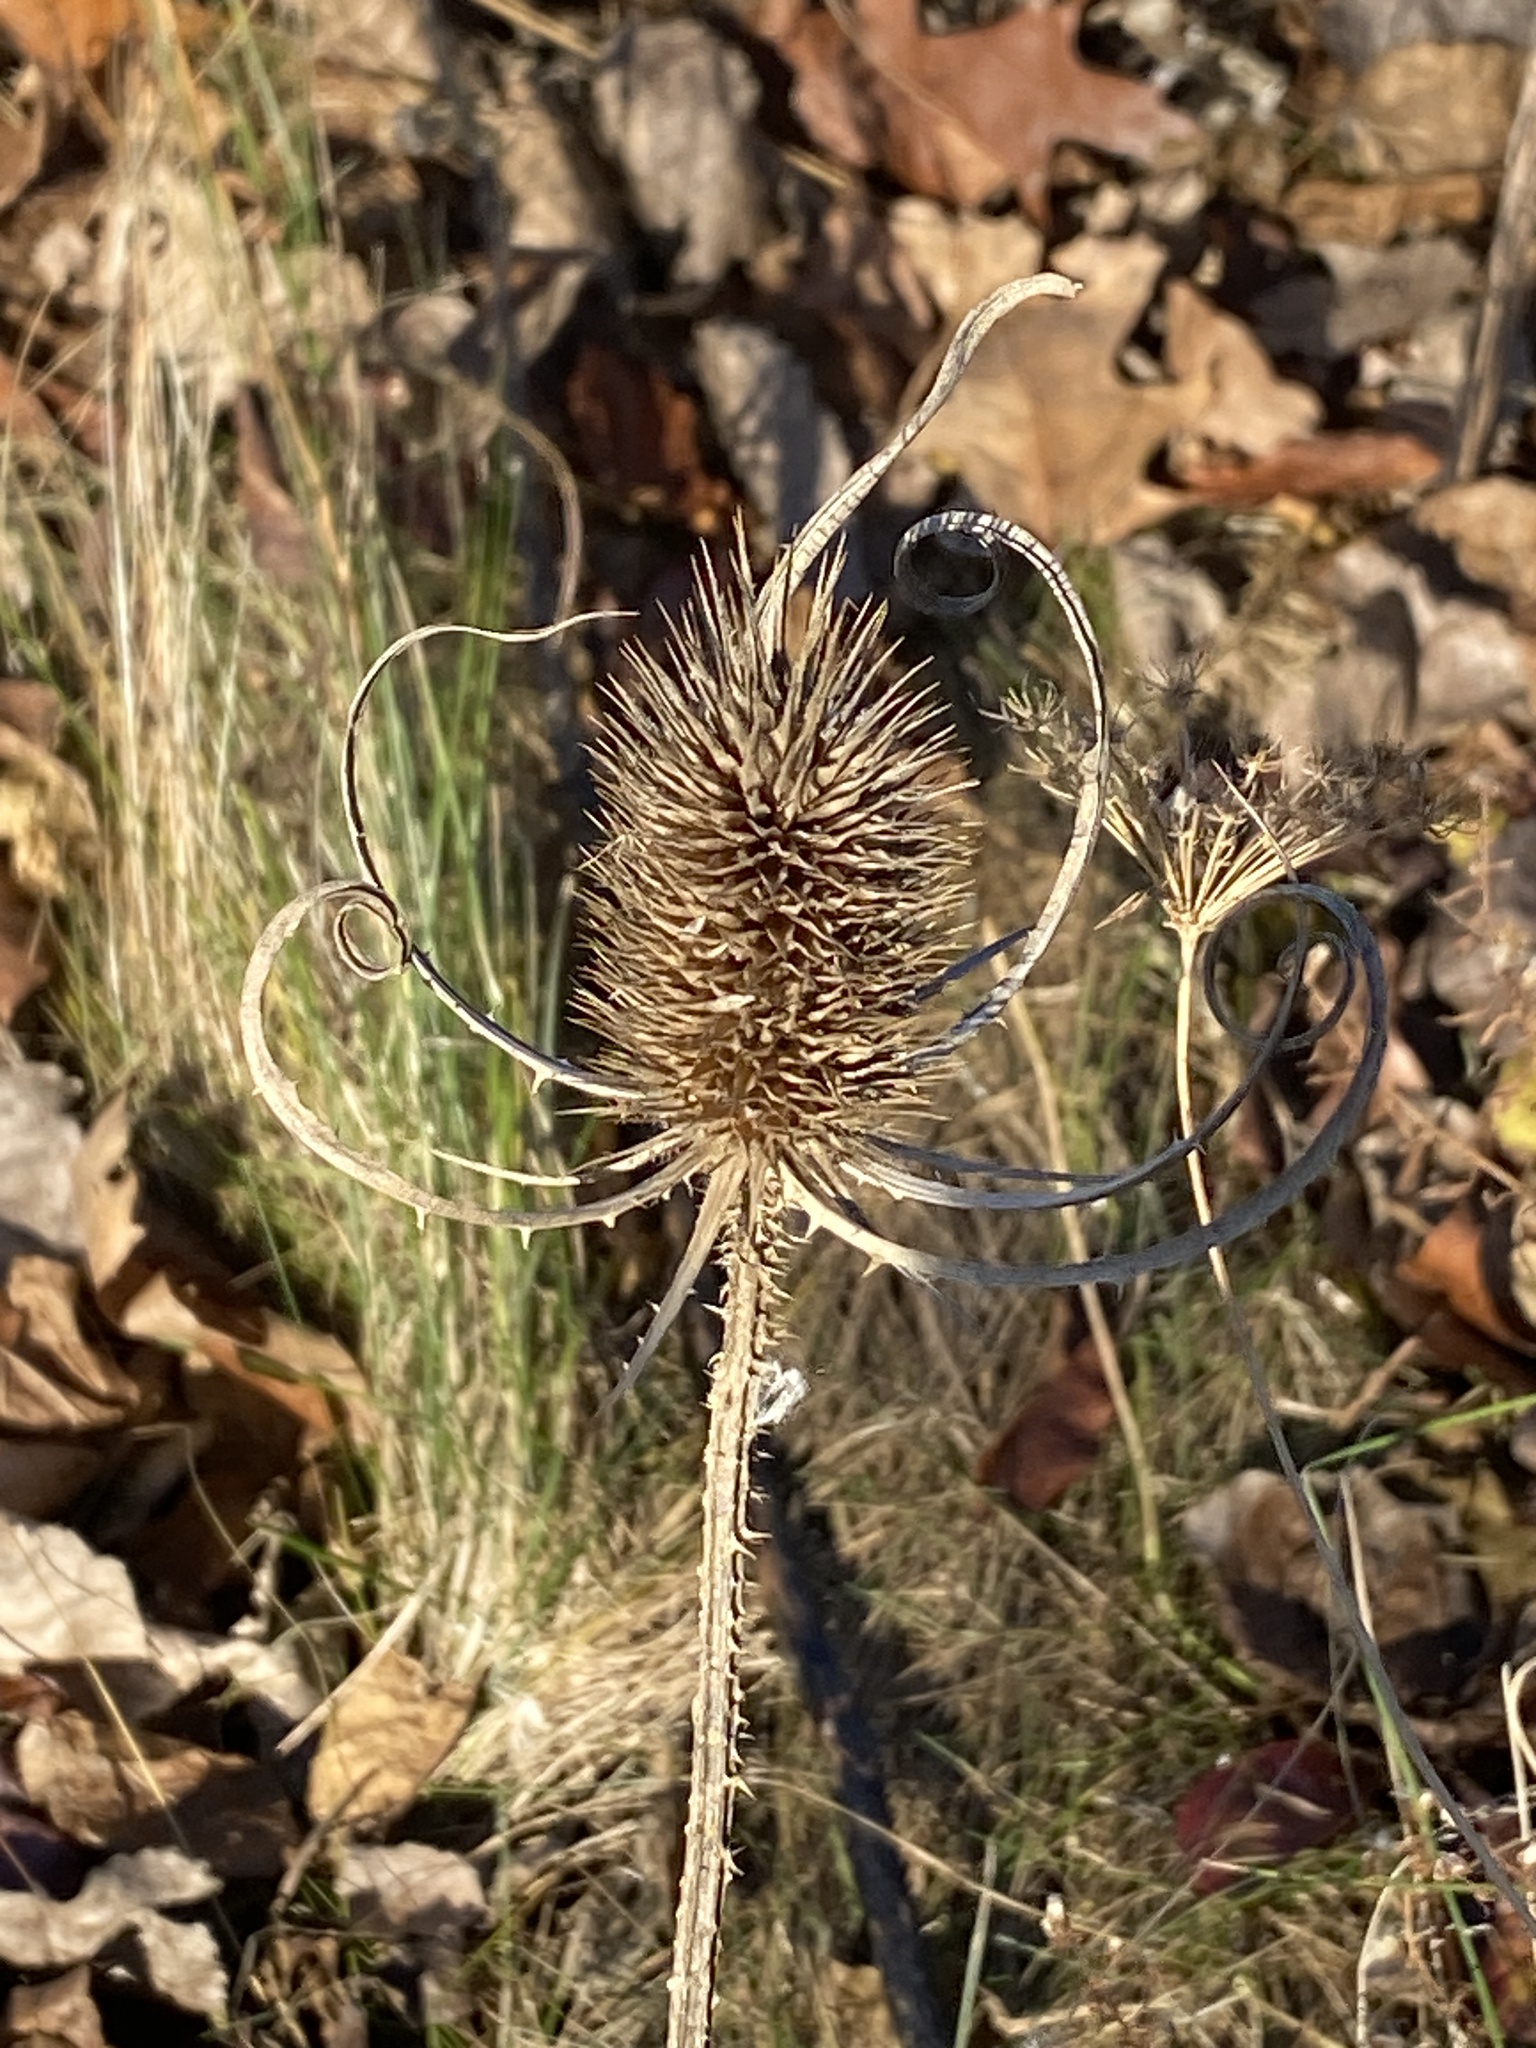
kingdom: Plantae
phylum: Tracheophyta
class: Magnoliopsida
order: Dipsacales
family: Caprifoliaceae
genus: Dipsacus
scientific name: Dipsacus fullonum
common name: Teasel
